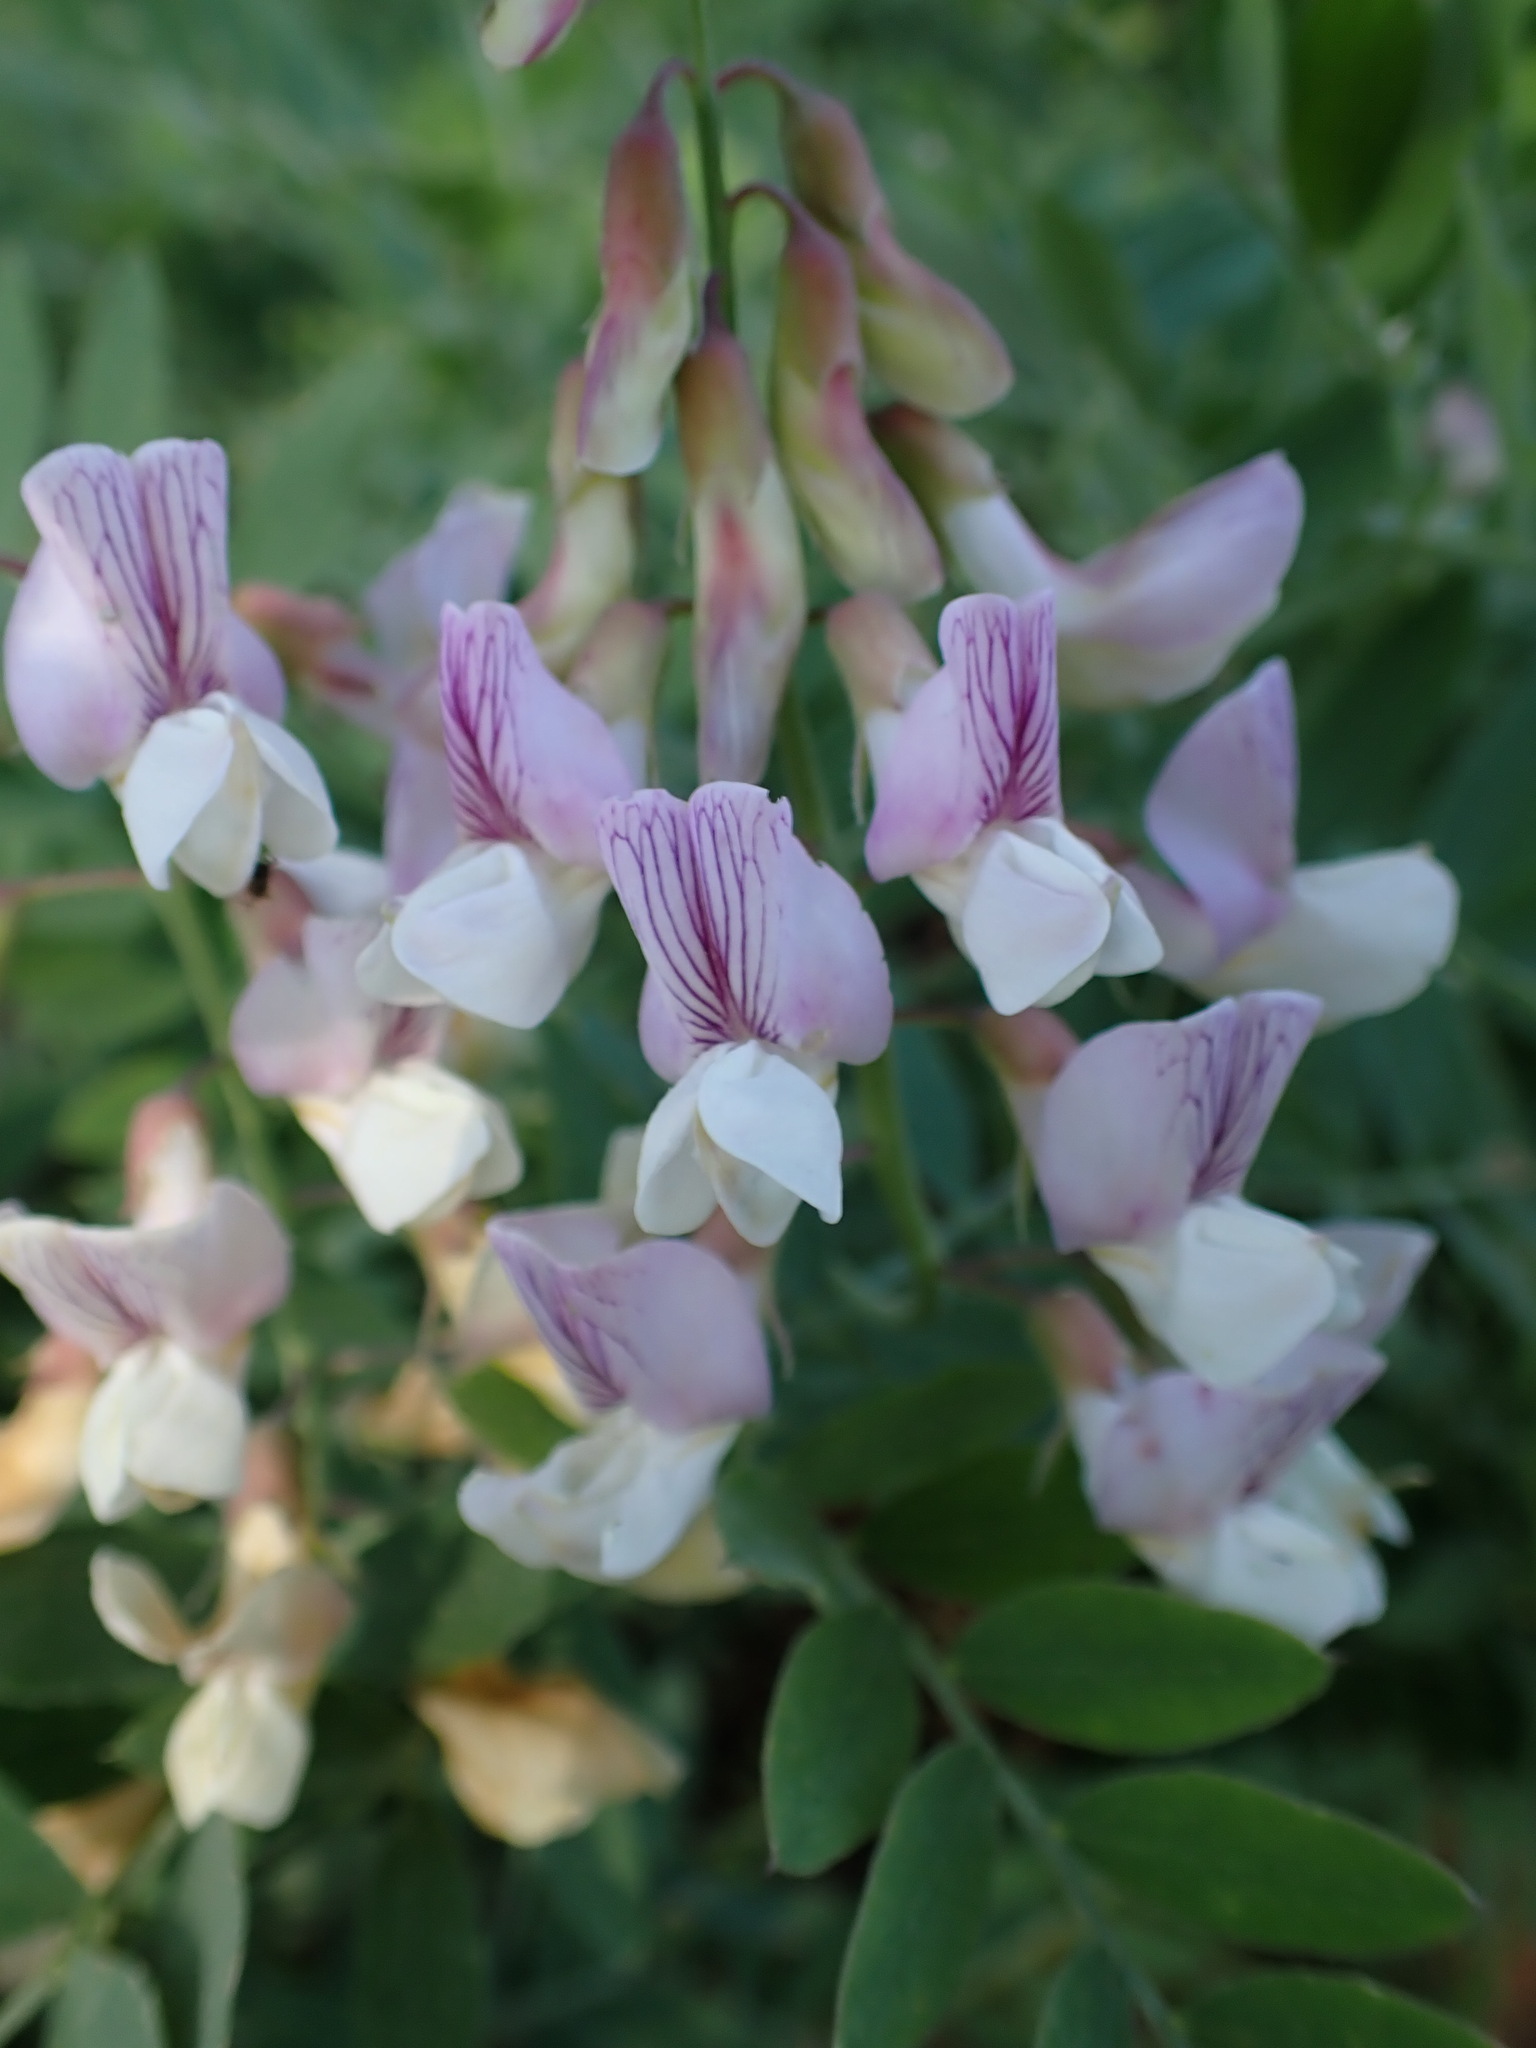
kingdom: Plantae
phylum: Tracheophyta
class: Magnoliopsida
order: Fabales
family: Fabaceae
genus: Lathyrus
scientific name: Lathyrus vestitus
